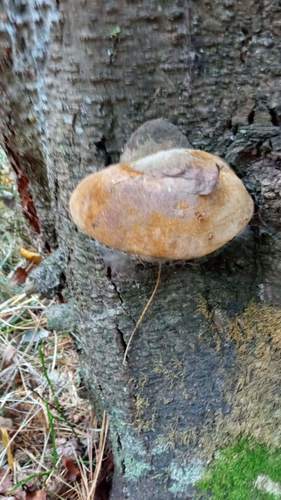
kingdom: Fungi
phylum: Basidiomycota
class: Agaricomycetes
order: Hymenochaetales
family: Hymenochaetaceae
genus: Phellinus
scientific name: Phellinus hartigii
